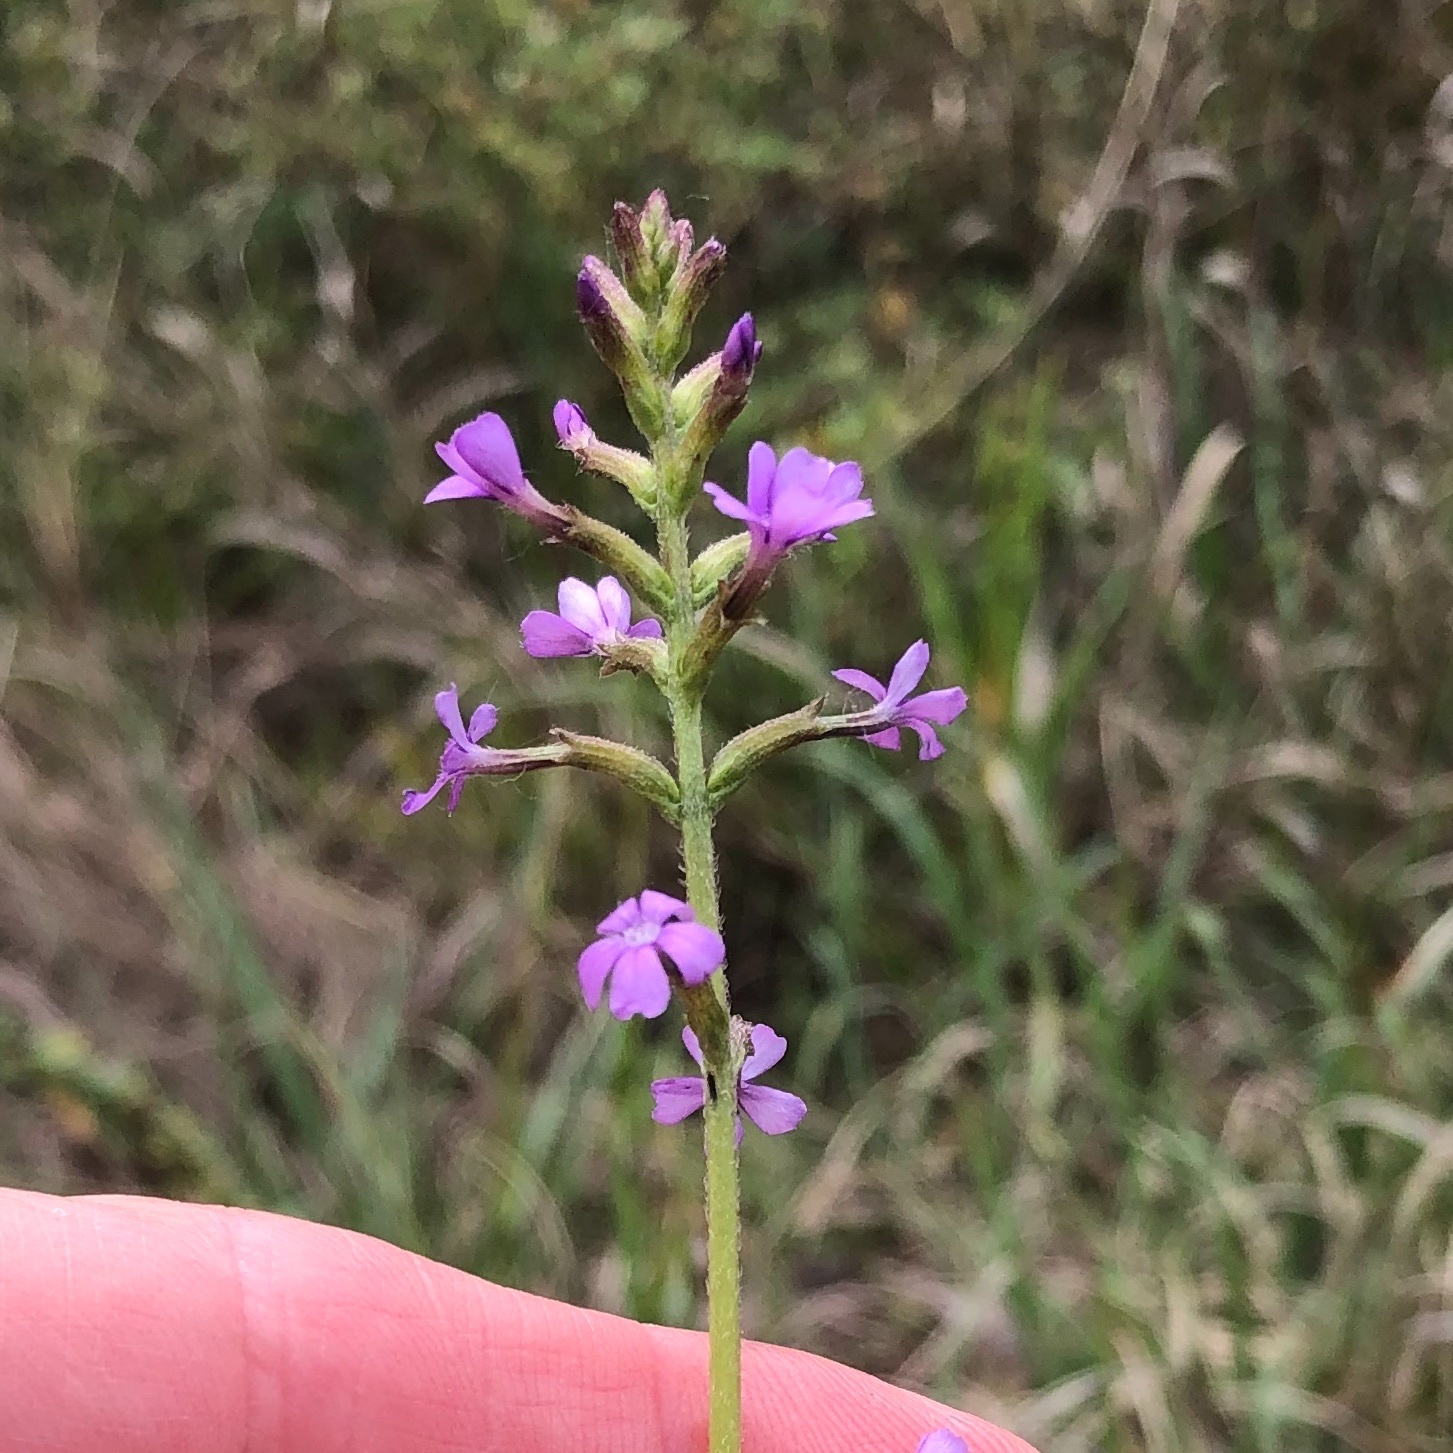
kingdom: Plantae
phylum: Tracheophyta
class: Magnoliopsida
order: Lamiales
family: Orobanchaceae
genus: Buchnera
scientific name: Buchnera floridana
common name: Florida bluehearts
